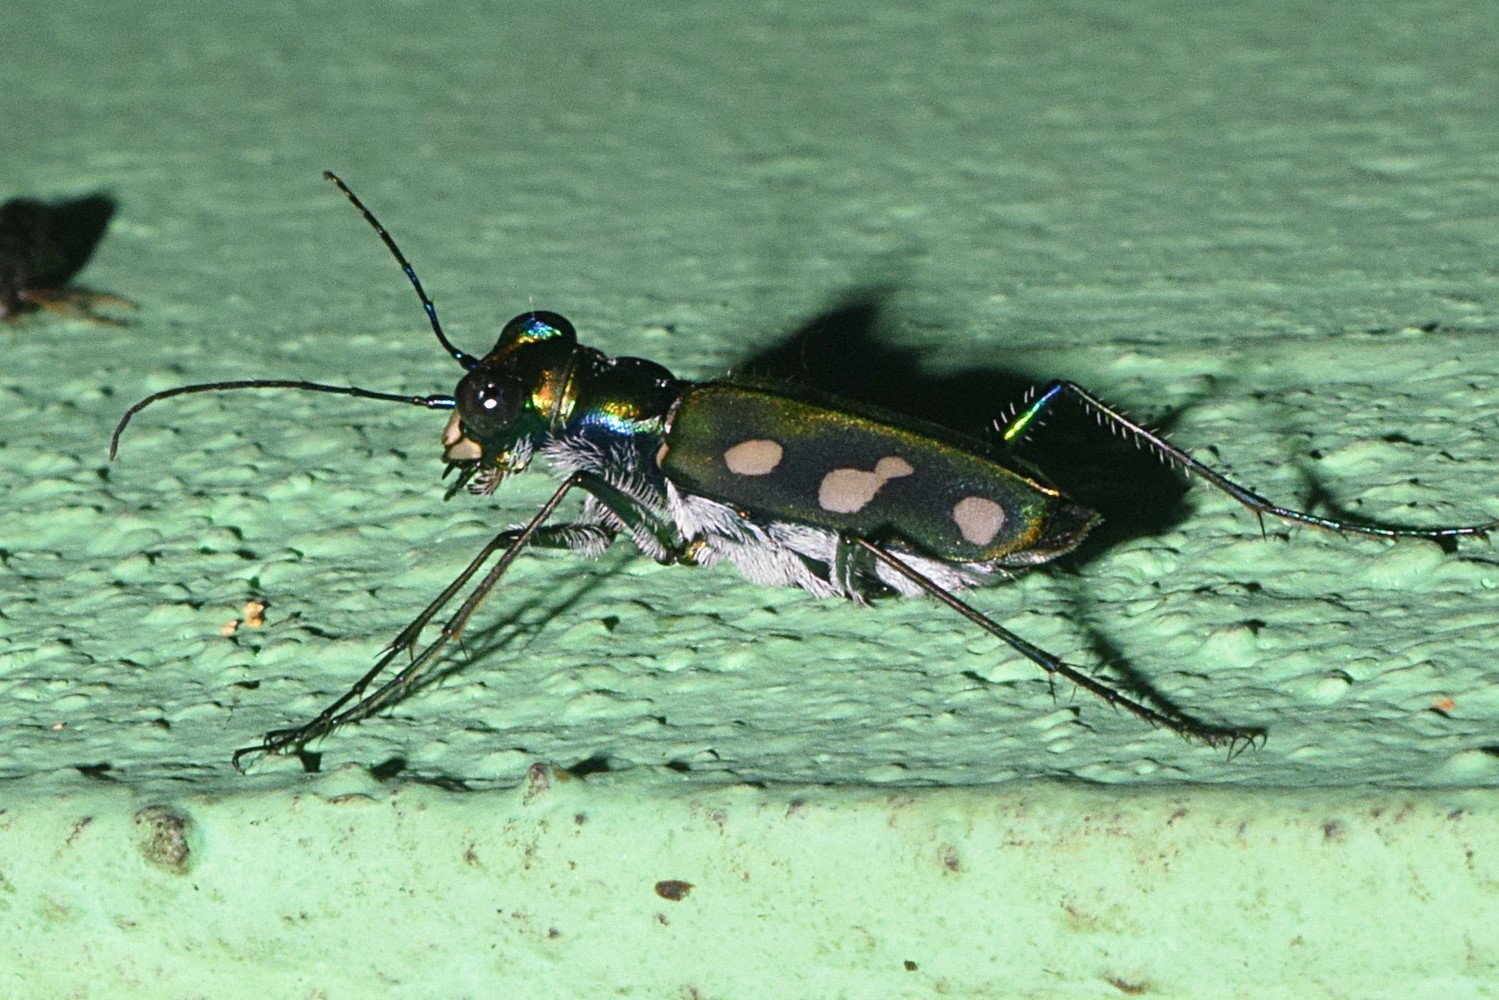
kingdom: Animalia
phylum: Arthropoda
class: Insecta
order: Coleoptera
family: Carabidae
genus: Cicindela
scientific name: Cicindela fleutiauxi
